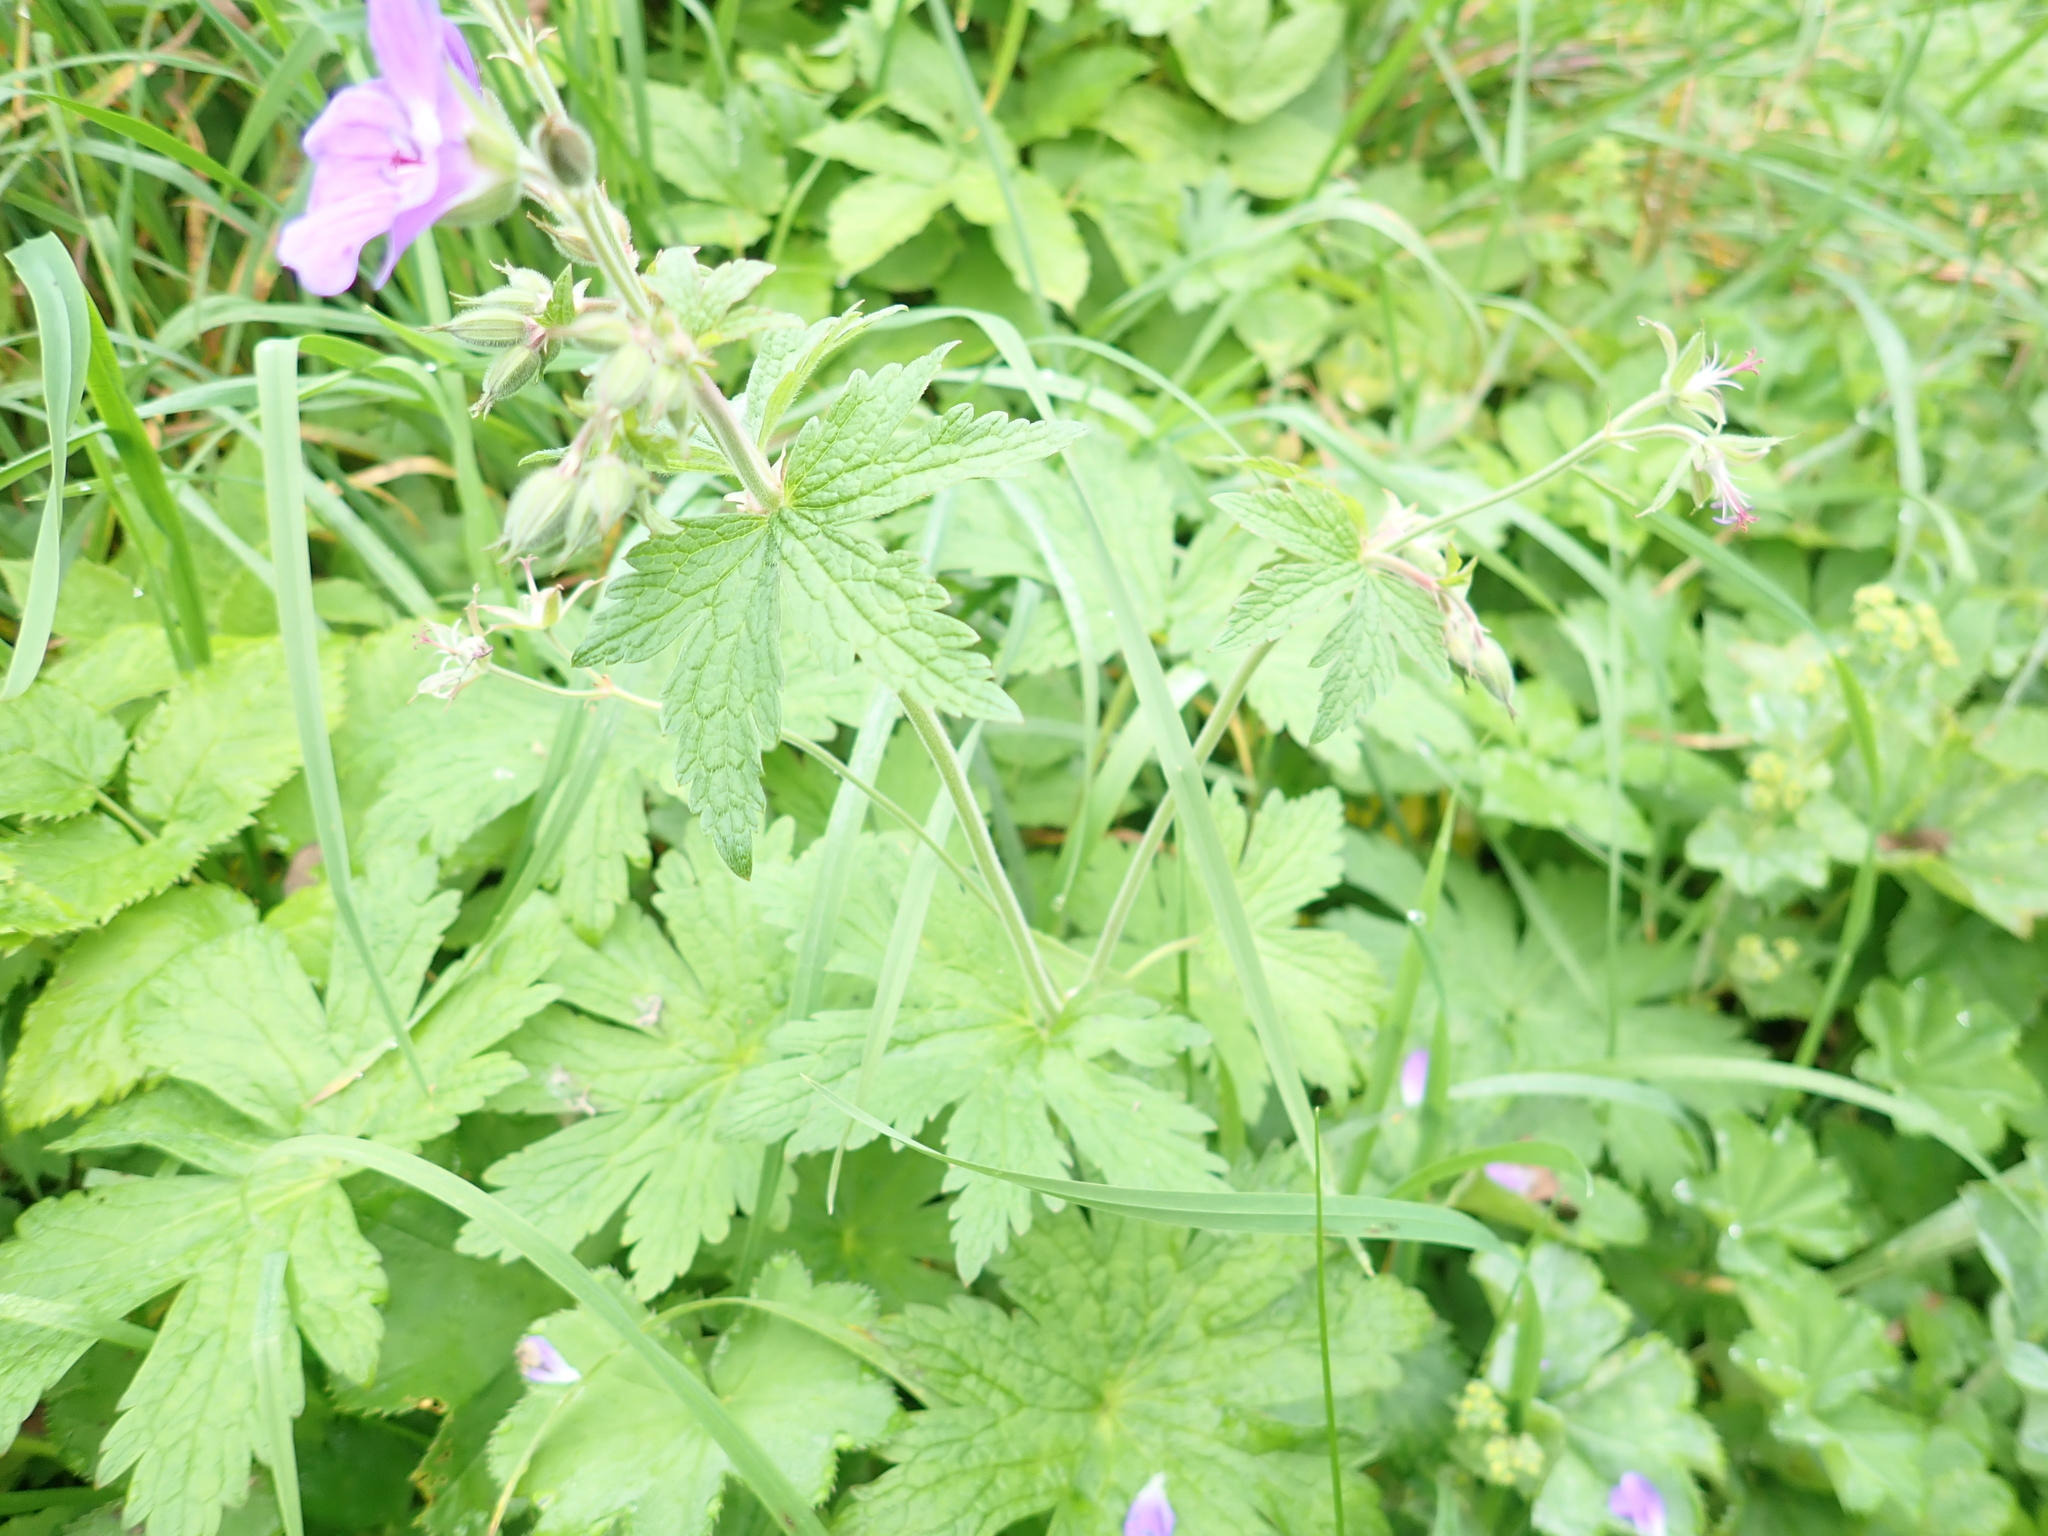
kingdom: Plantae
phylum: Tracheophyta
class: Magnoliopsida
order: Geraniales
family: Geraniaceae
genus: Geranium
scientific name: Geranium sylvaticum
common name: Wood crane's-bill
